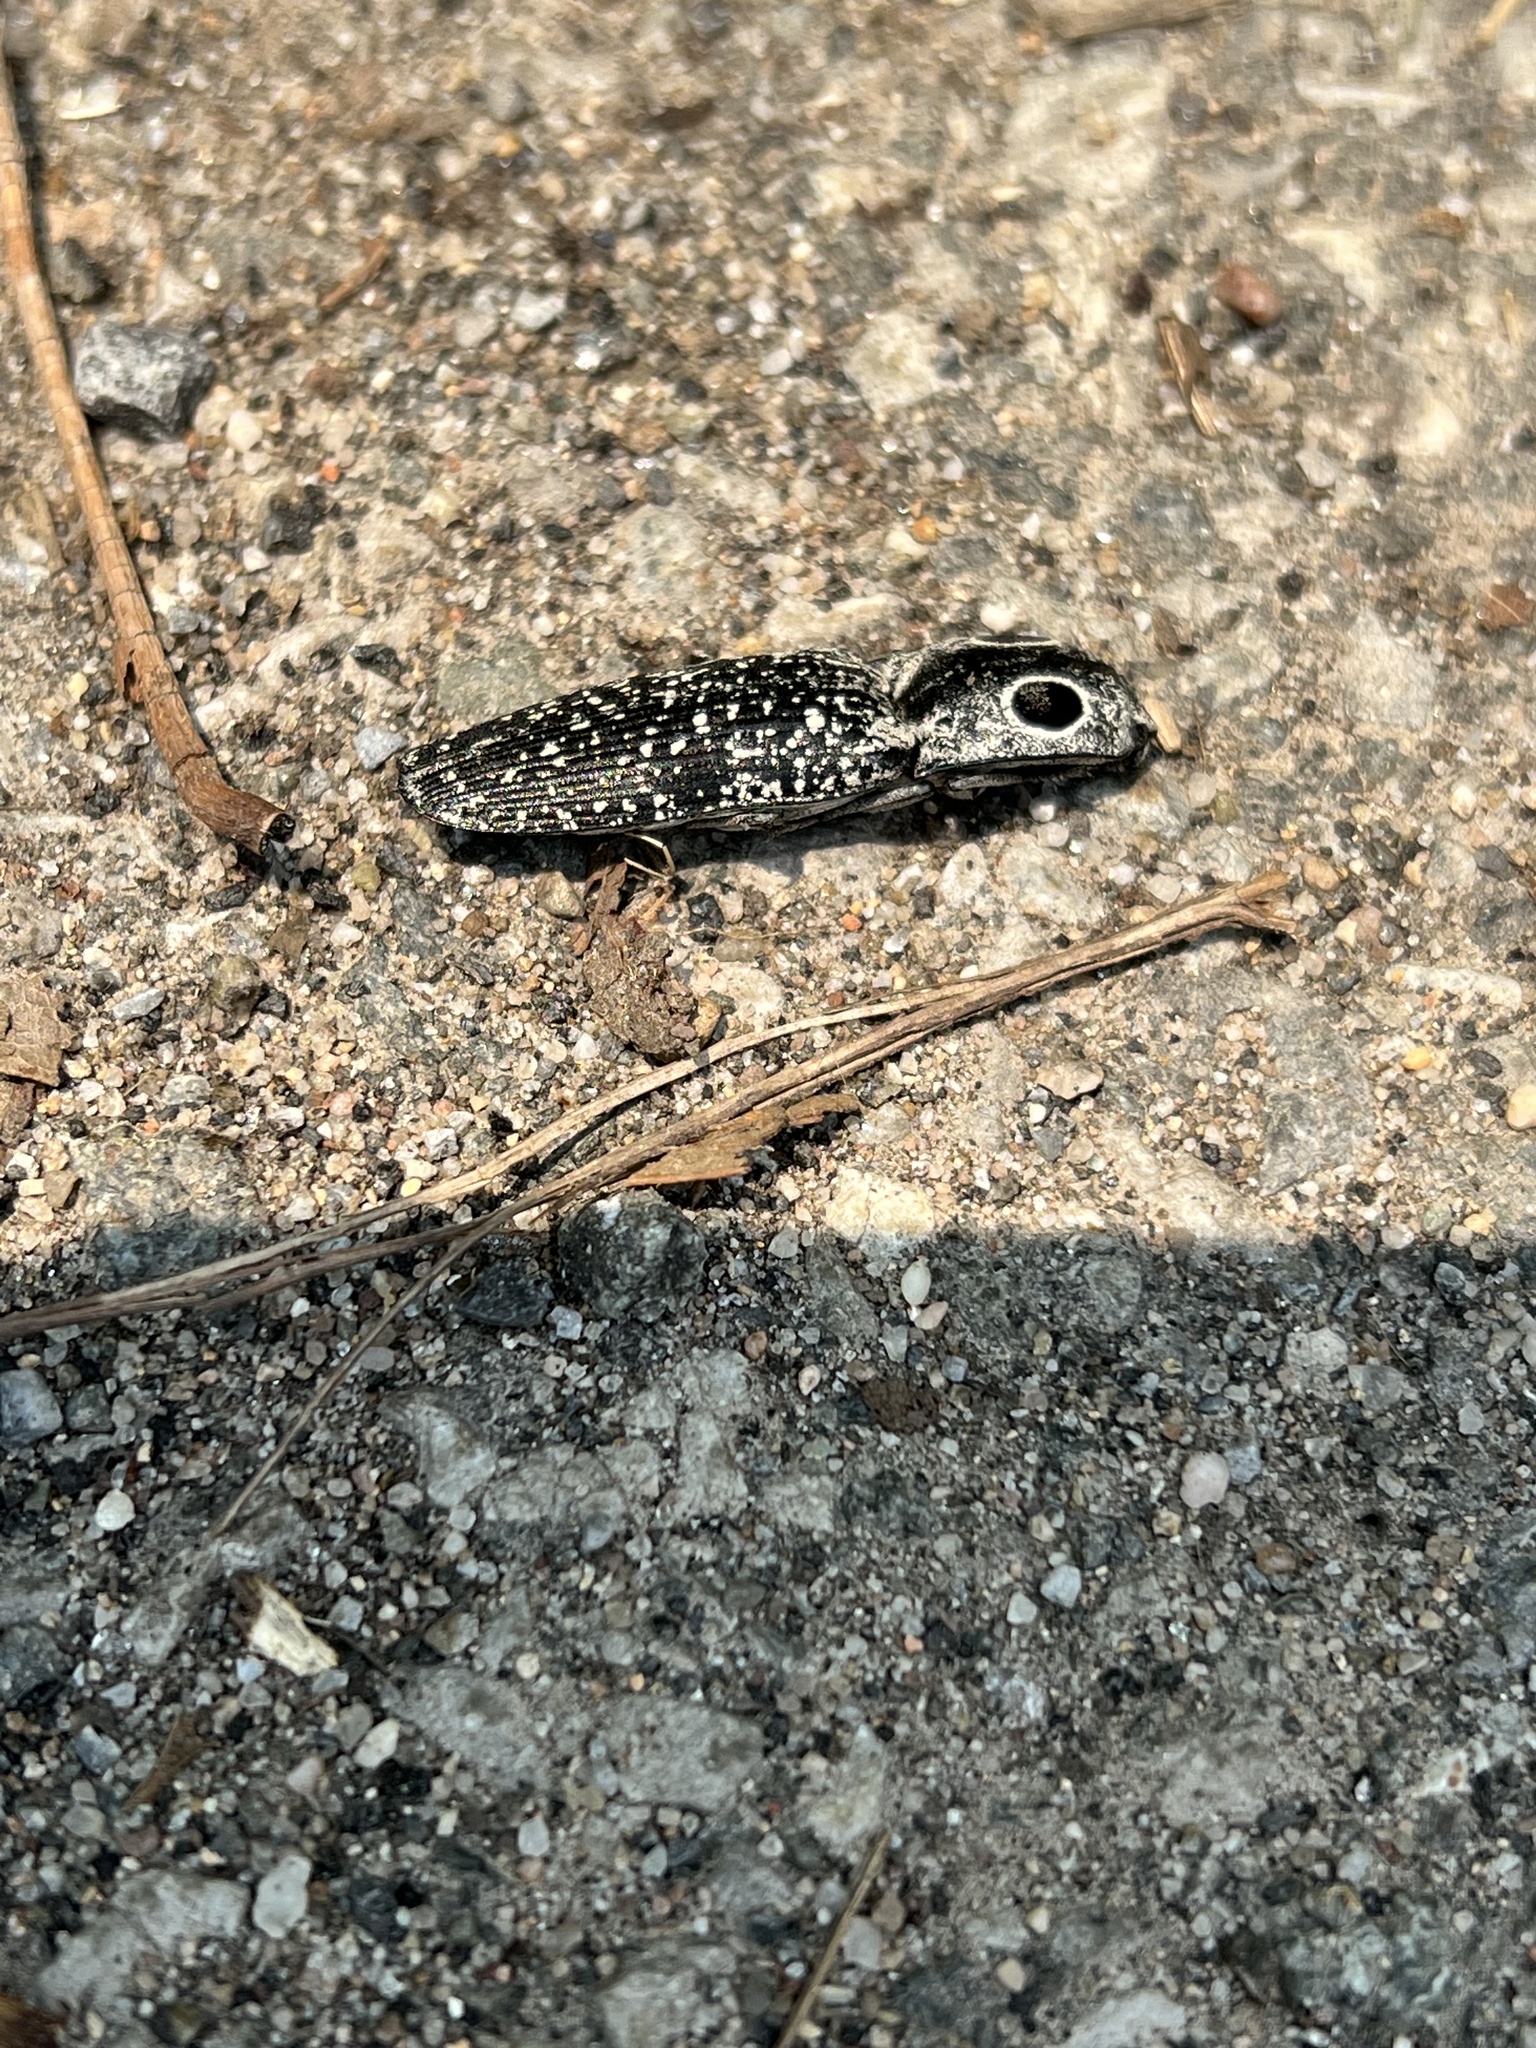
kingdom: Animalia
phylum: Arthropoda
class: Insecta
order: Coleoptera
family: Elateridae
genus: Alaus
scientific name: Alaus oculatus
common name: Eastern eyed click beetle
